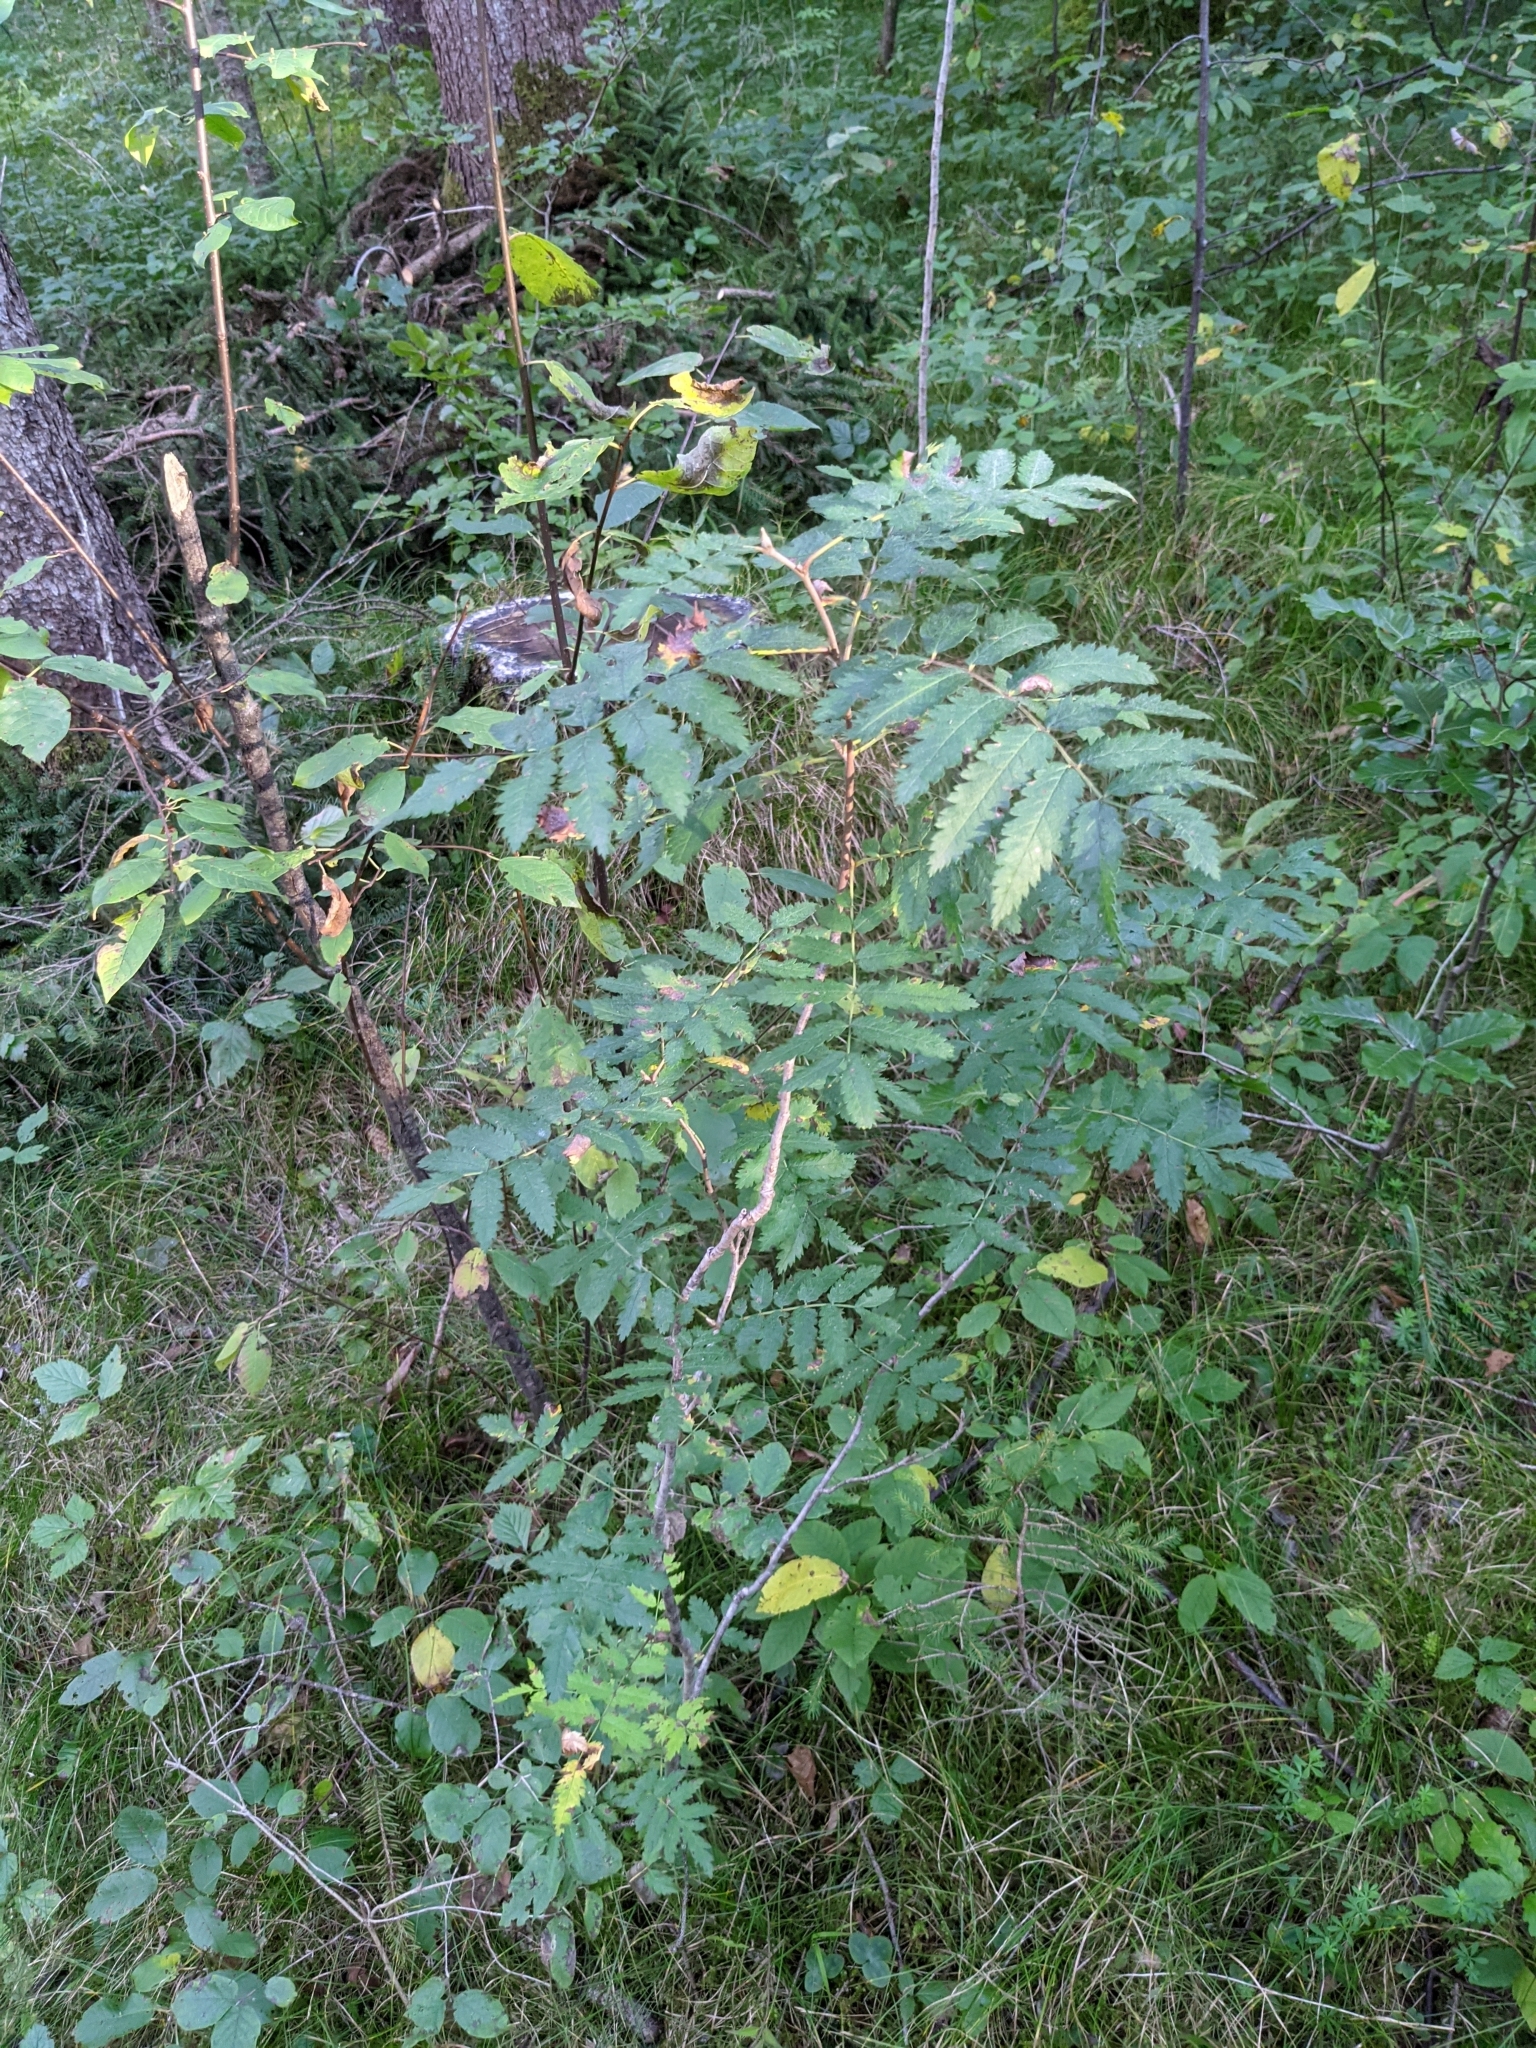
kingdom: Plantae
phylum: Tracheophyta
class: Magnoliopsida
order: Rosales
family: Rosaceae
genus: Sorbus
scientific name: Sorbus aucuparia
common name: Rowan
